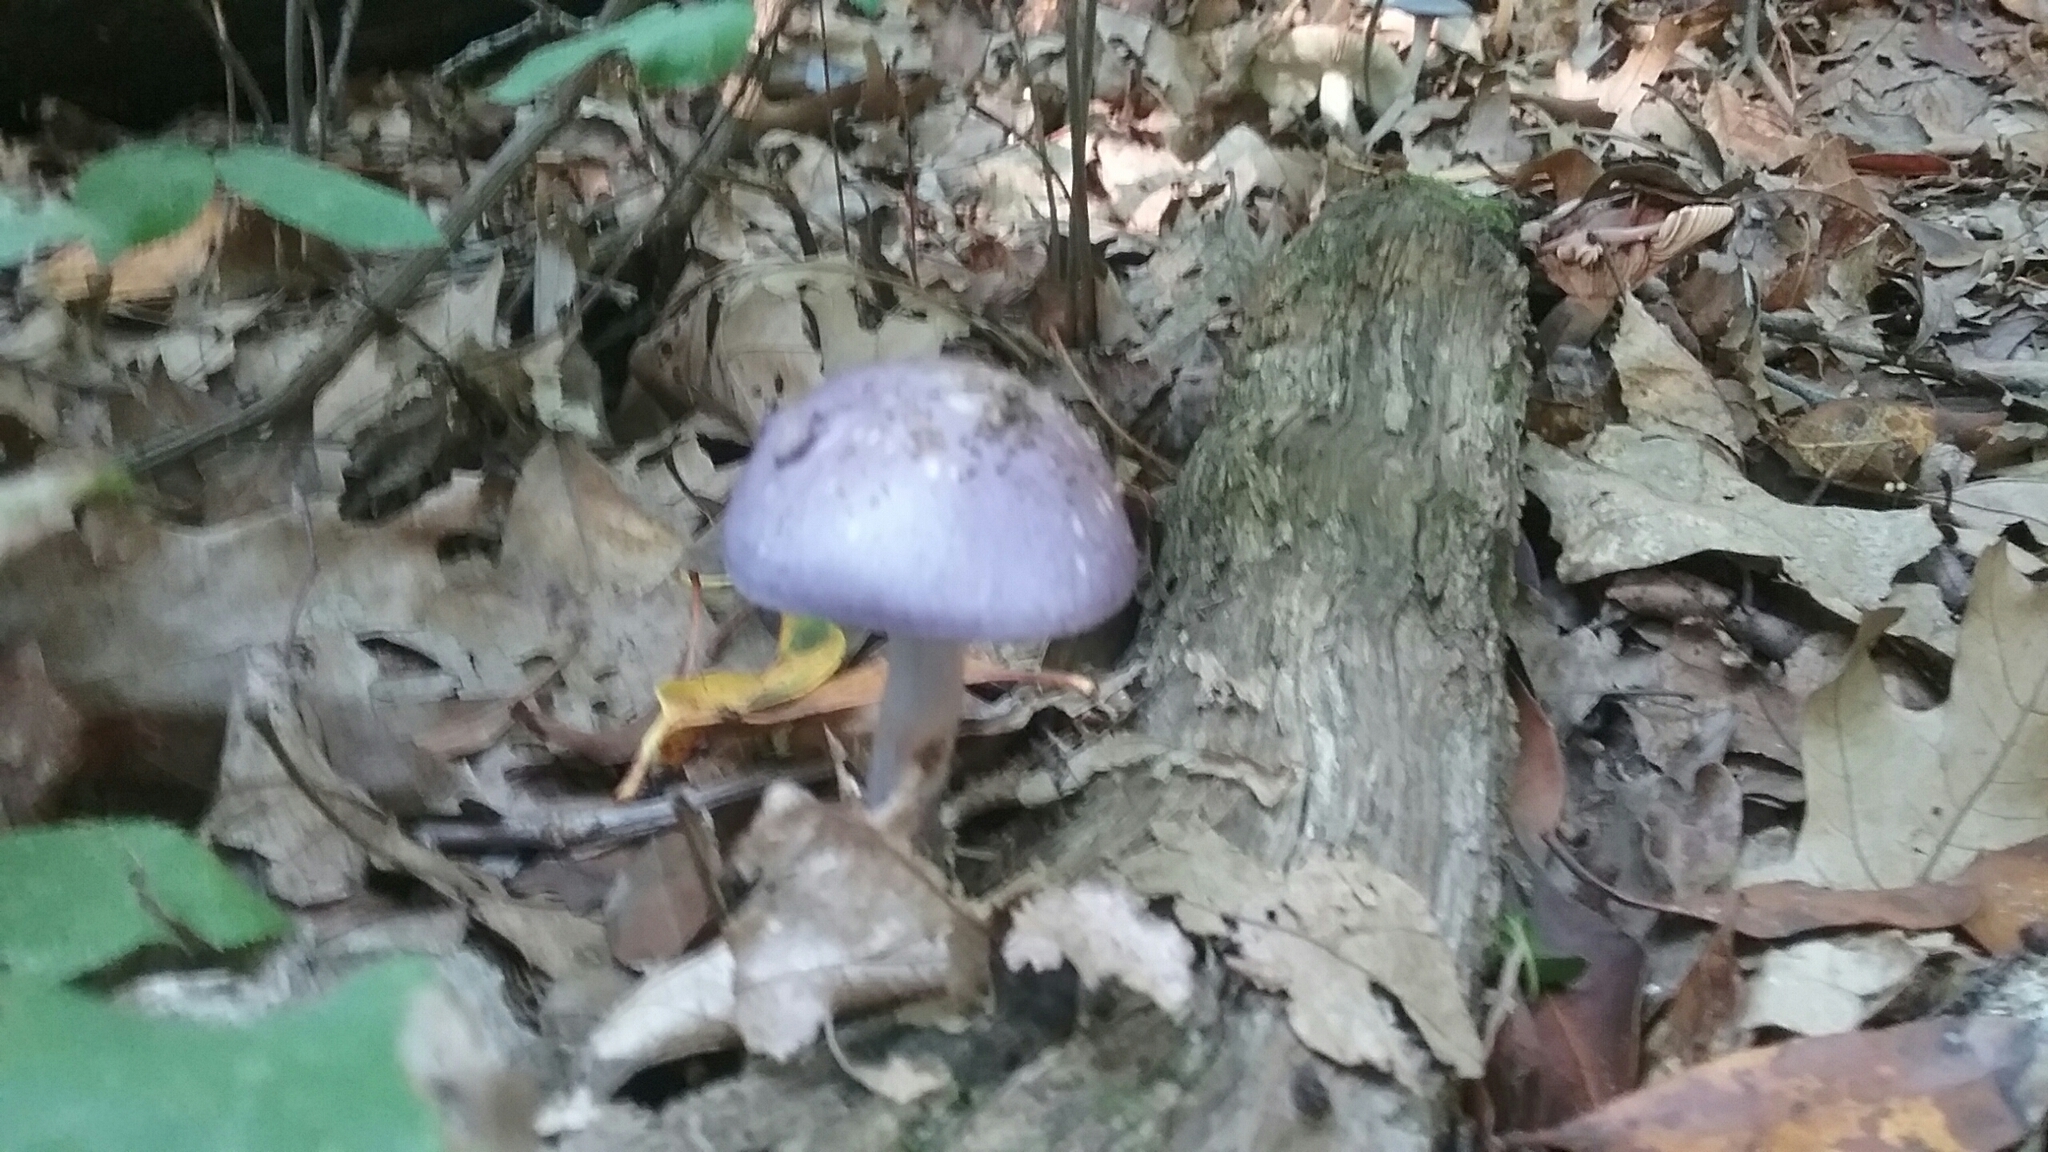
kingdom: Fungi
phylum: Basidiomycota
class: Agaricomycetes
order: Agaricales
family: Cortinariaceae
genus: Cortinarius
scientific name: Cortinarius iodes
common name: Viscid violet cort
